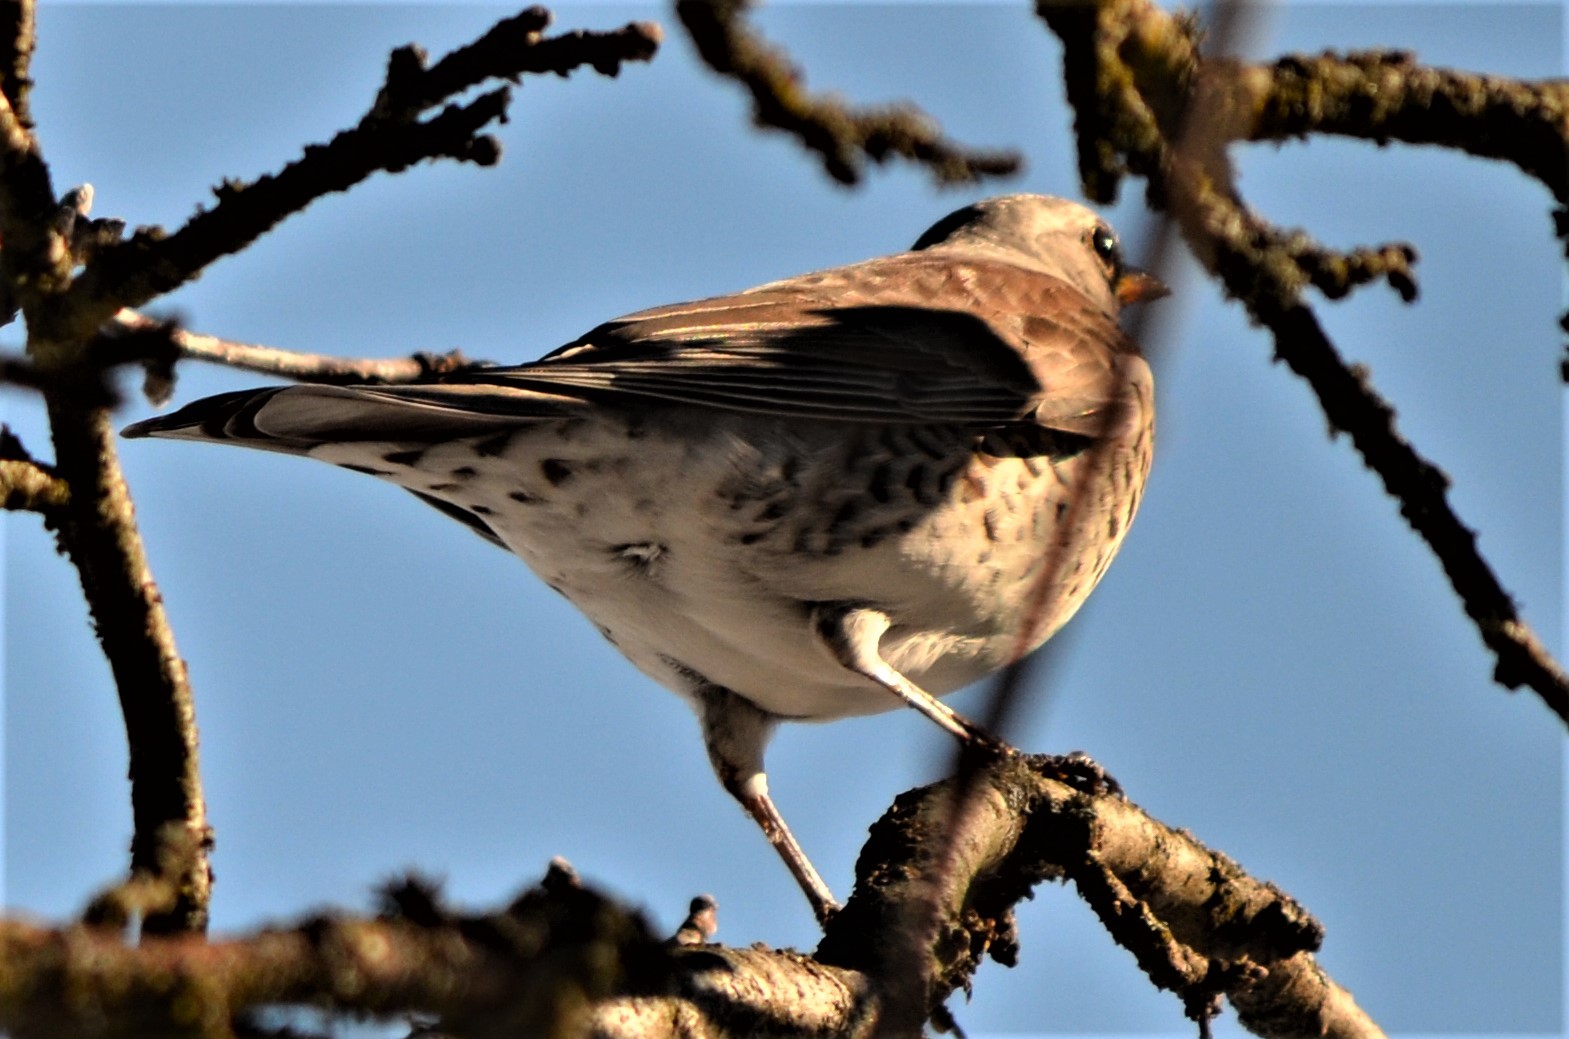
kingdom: Animalia
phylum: Chordata
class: Aves
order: Passeriformes
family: Turdidae
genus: Turdus
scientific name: Turdus pilaris
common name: Fieldfare
